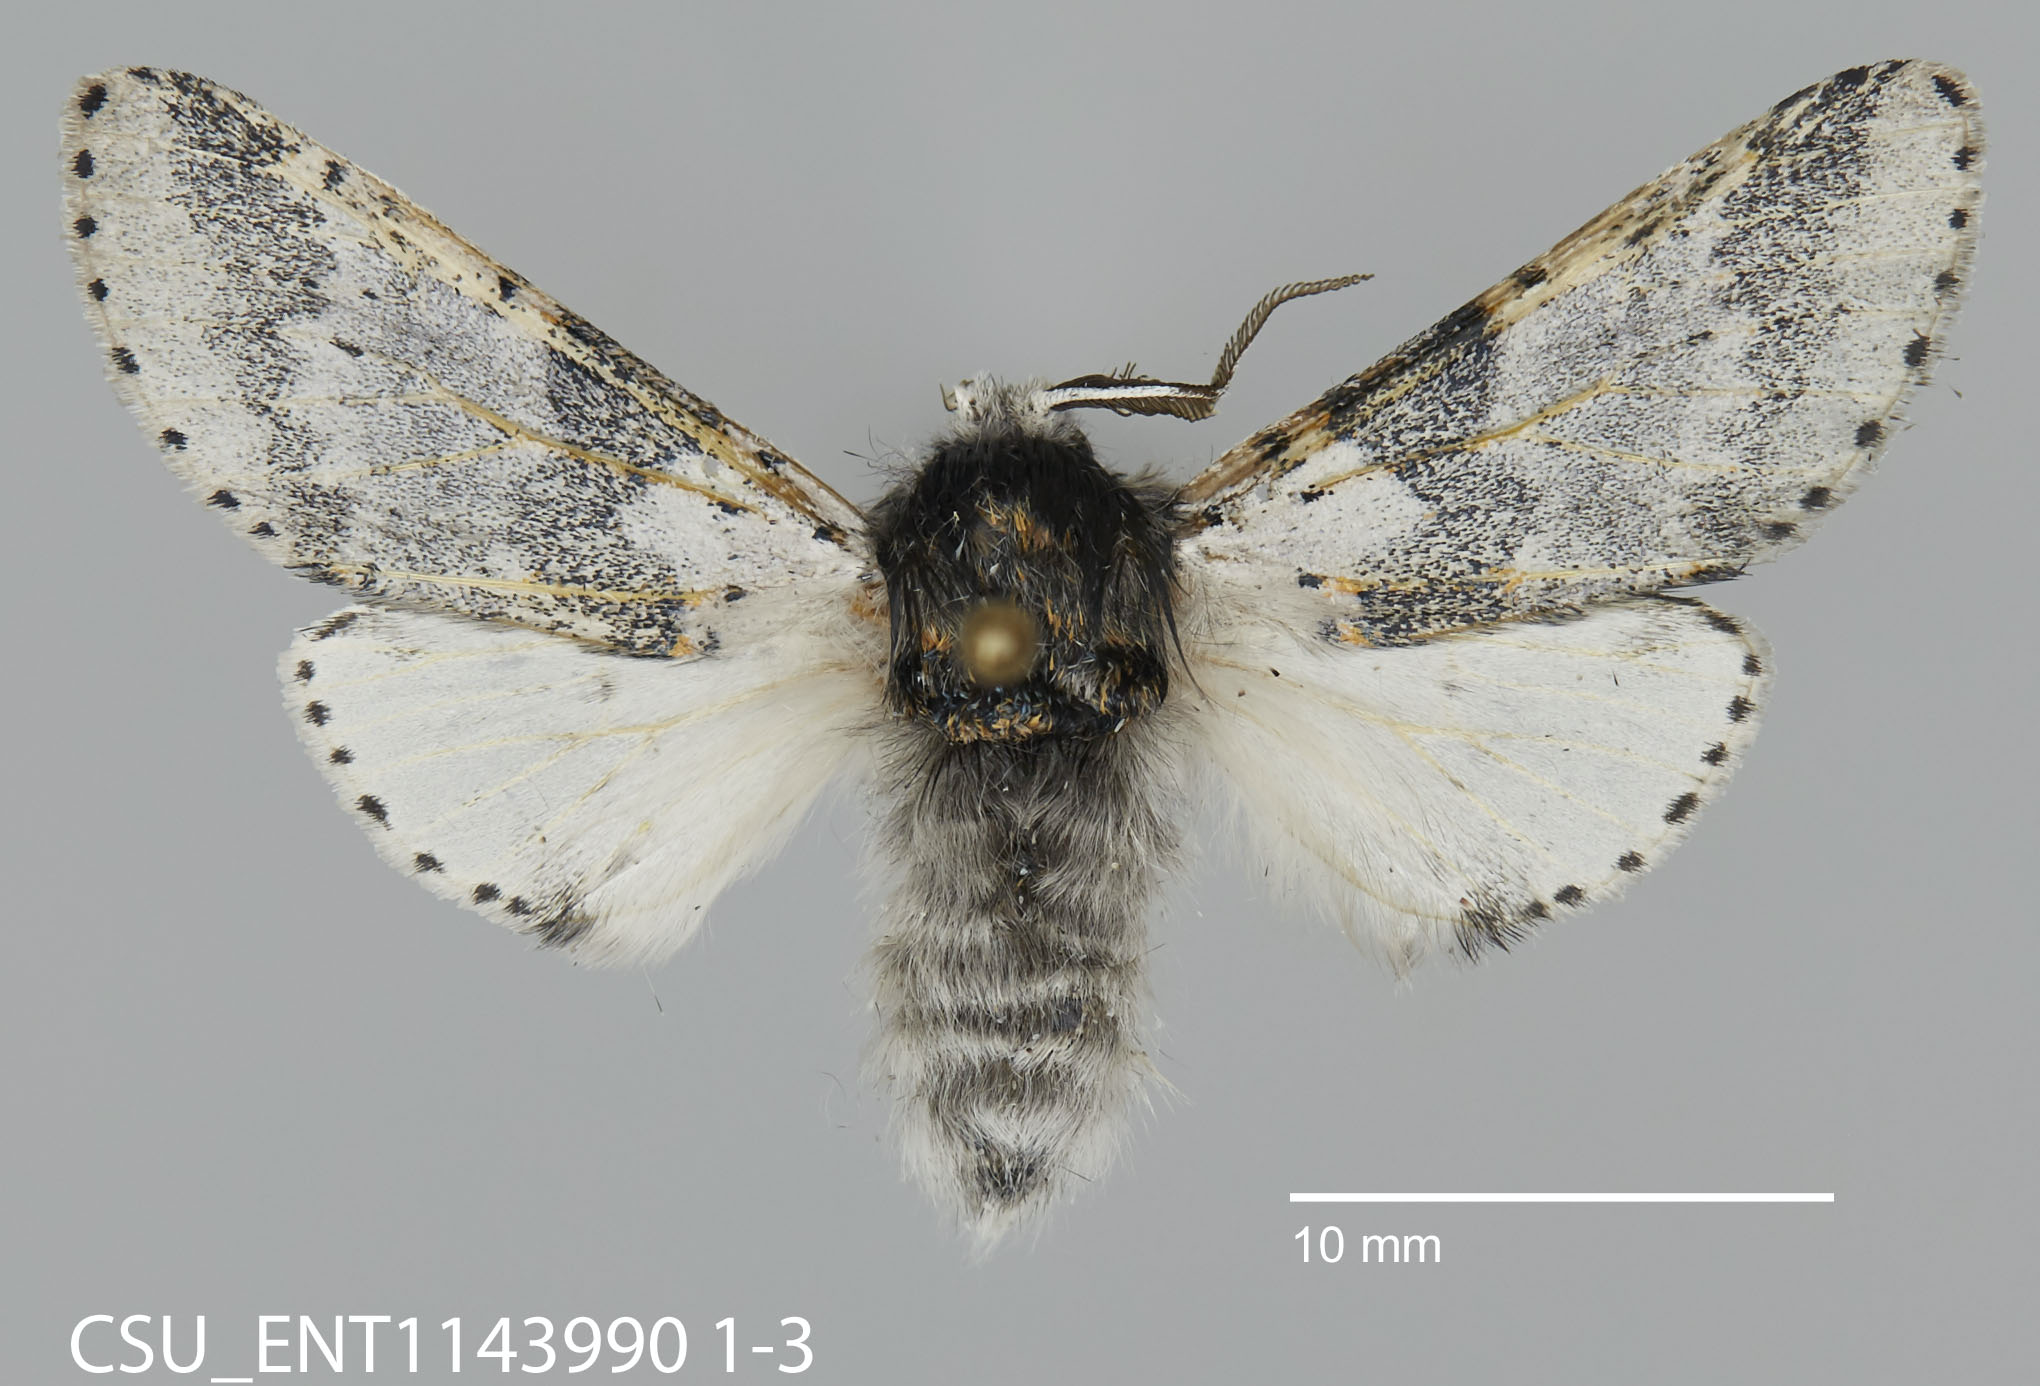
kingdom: Animalia
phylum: Arthropoda
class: Insecta
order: Lepidoptera
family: Notodontidae
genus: Furcula
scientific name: Furcula cinerea
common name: Gray furcula
